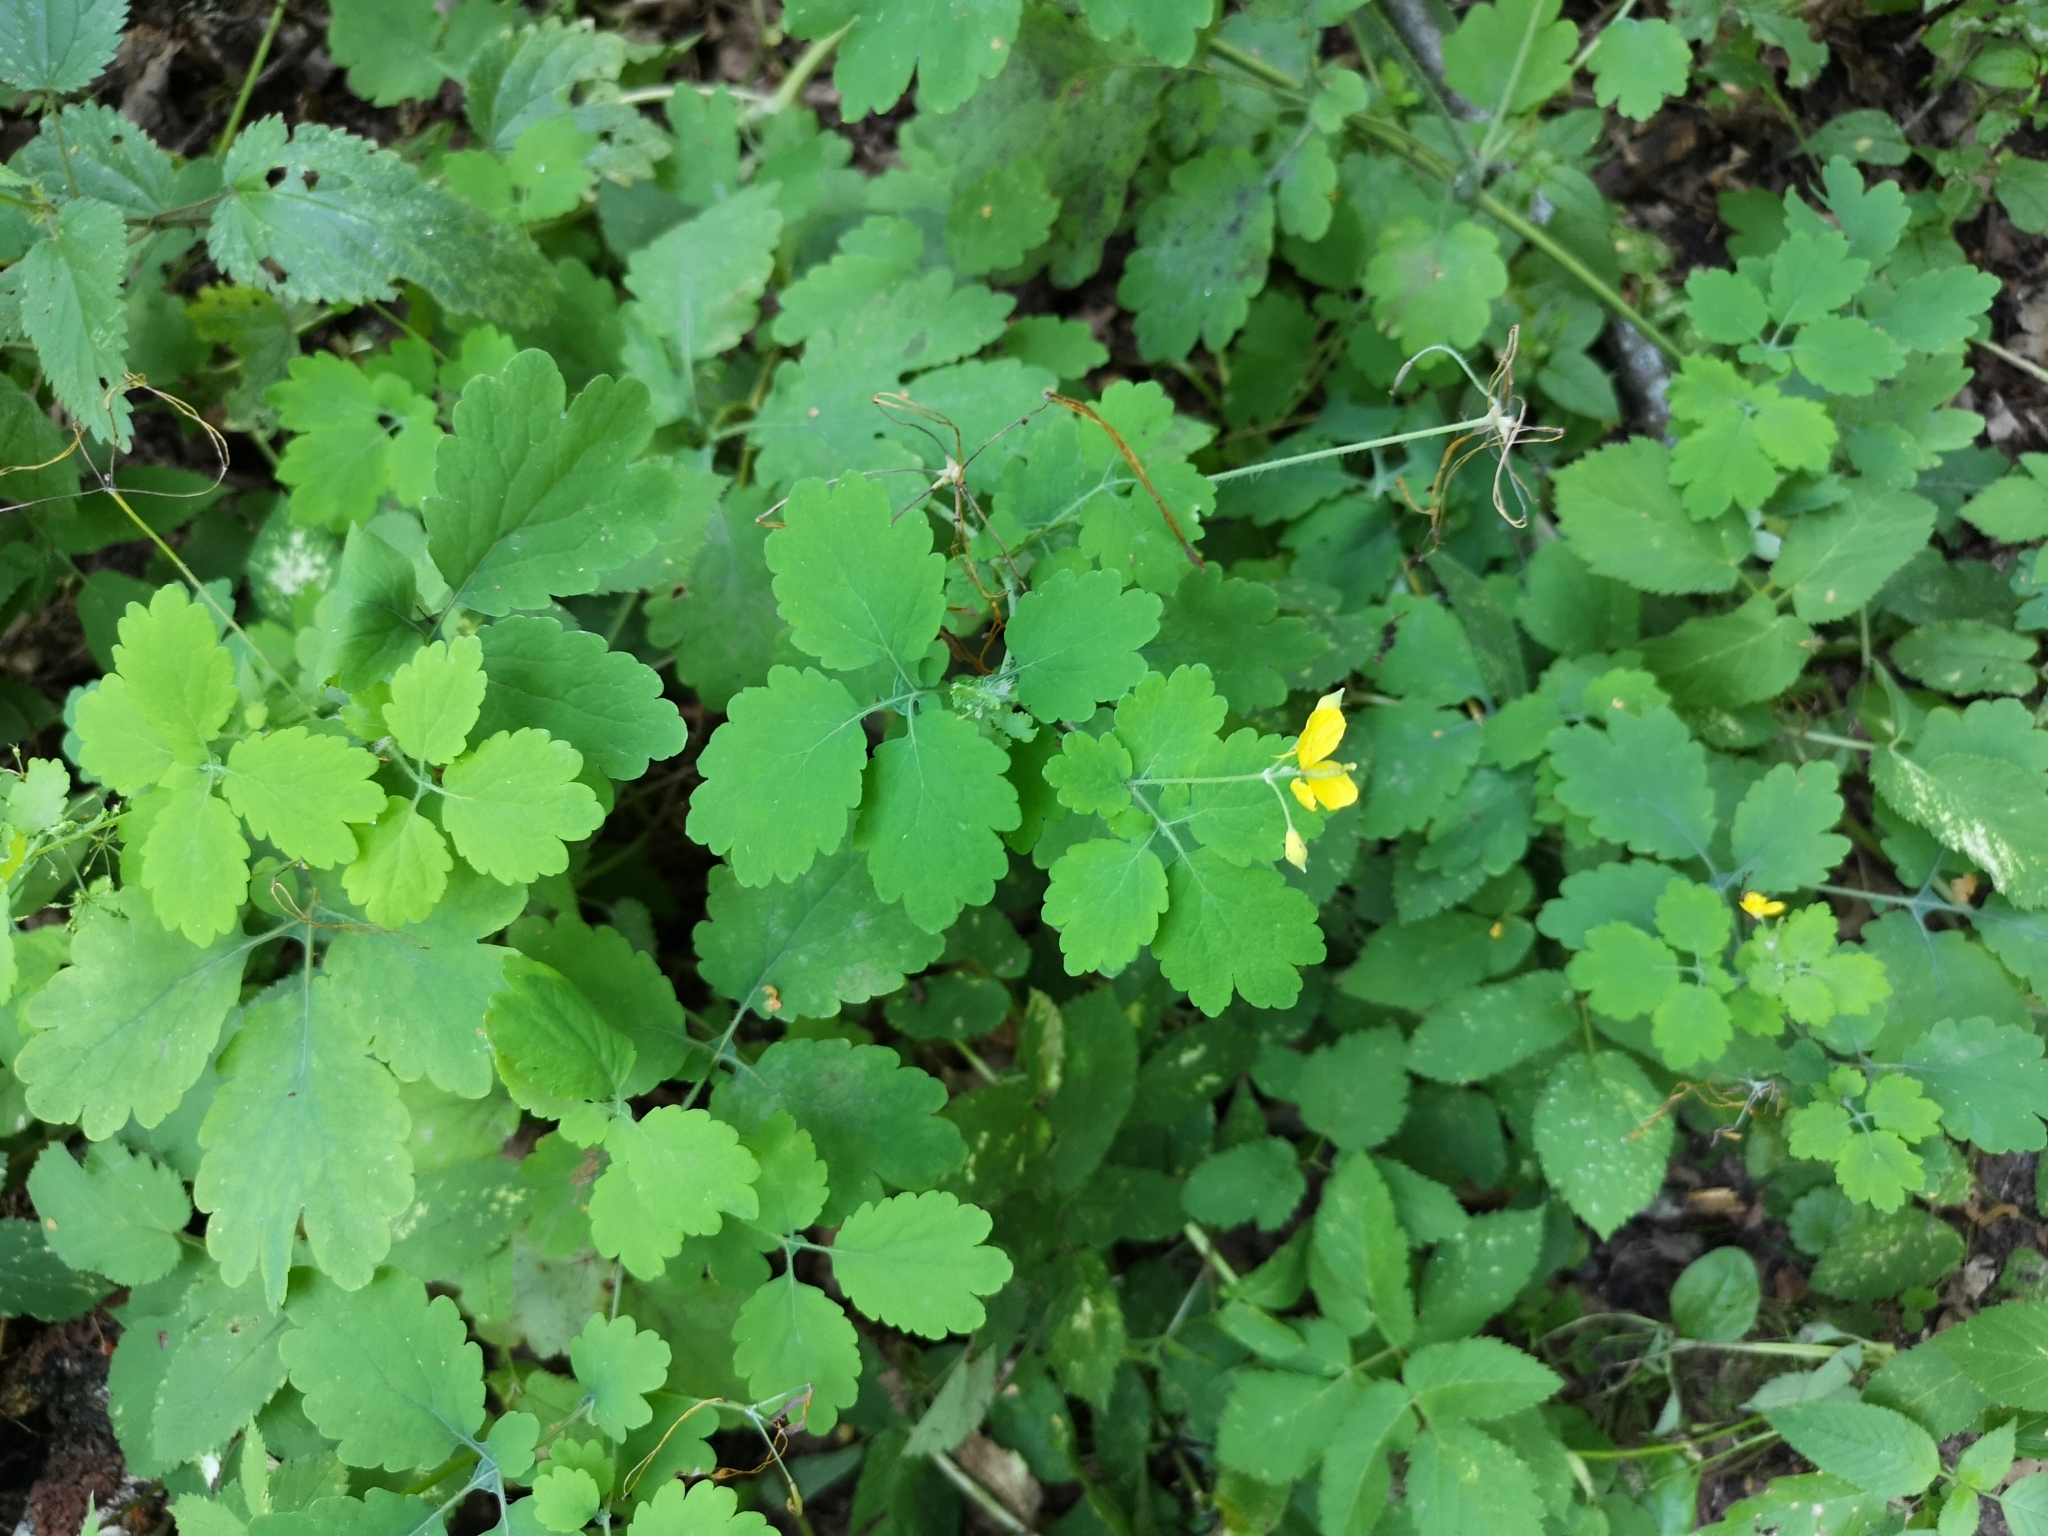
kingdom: Plantae
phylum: Tracheophyta
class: Magnoliopsida
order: Ranunculales
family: Papaveraceae
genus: Chelidonium
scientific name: Chelidonium majus
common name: Greater celandine
